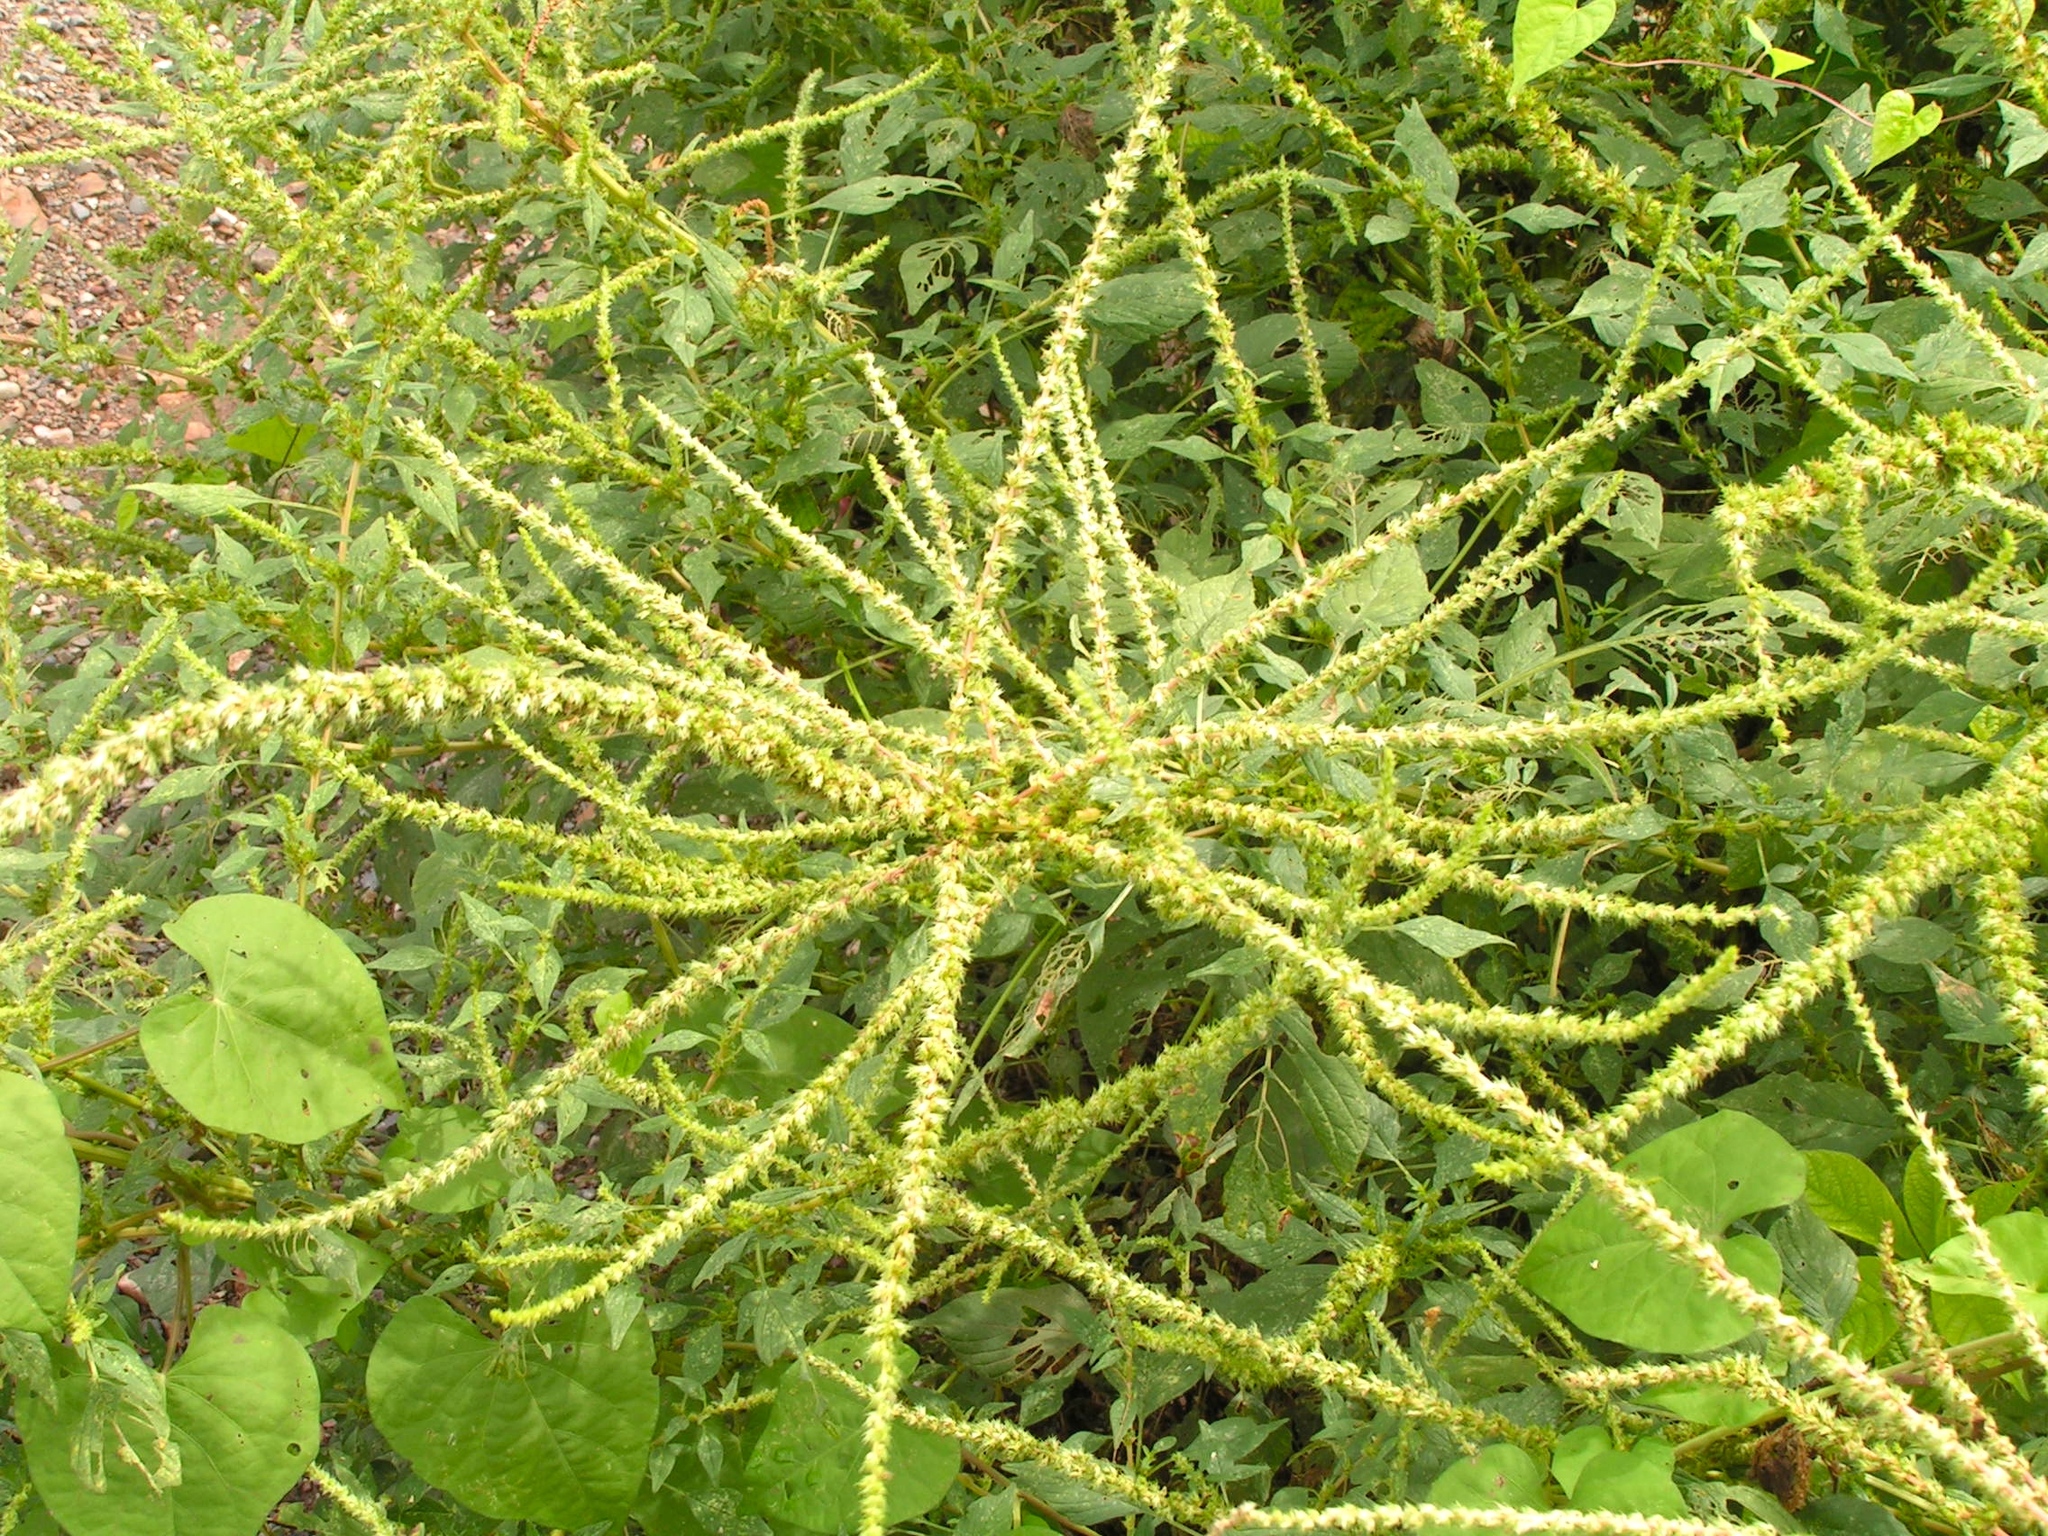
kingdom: Plantae
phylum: Tracheophyta
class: Magnoliopsida
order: Caryophyllales
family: Amaranthaceae
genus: Amaranthus
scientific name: Amaranthus hybridus
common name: Green amaranth
